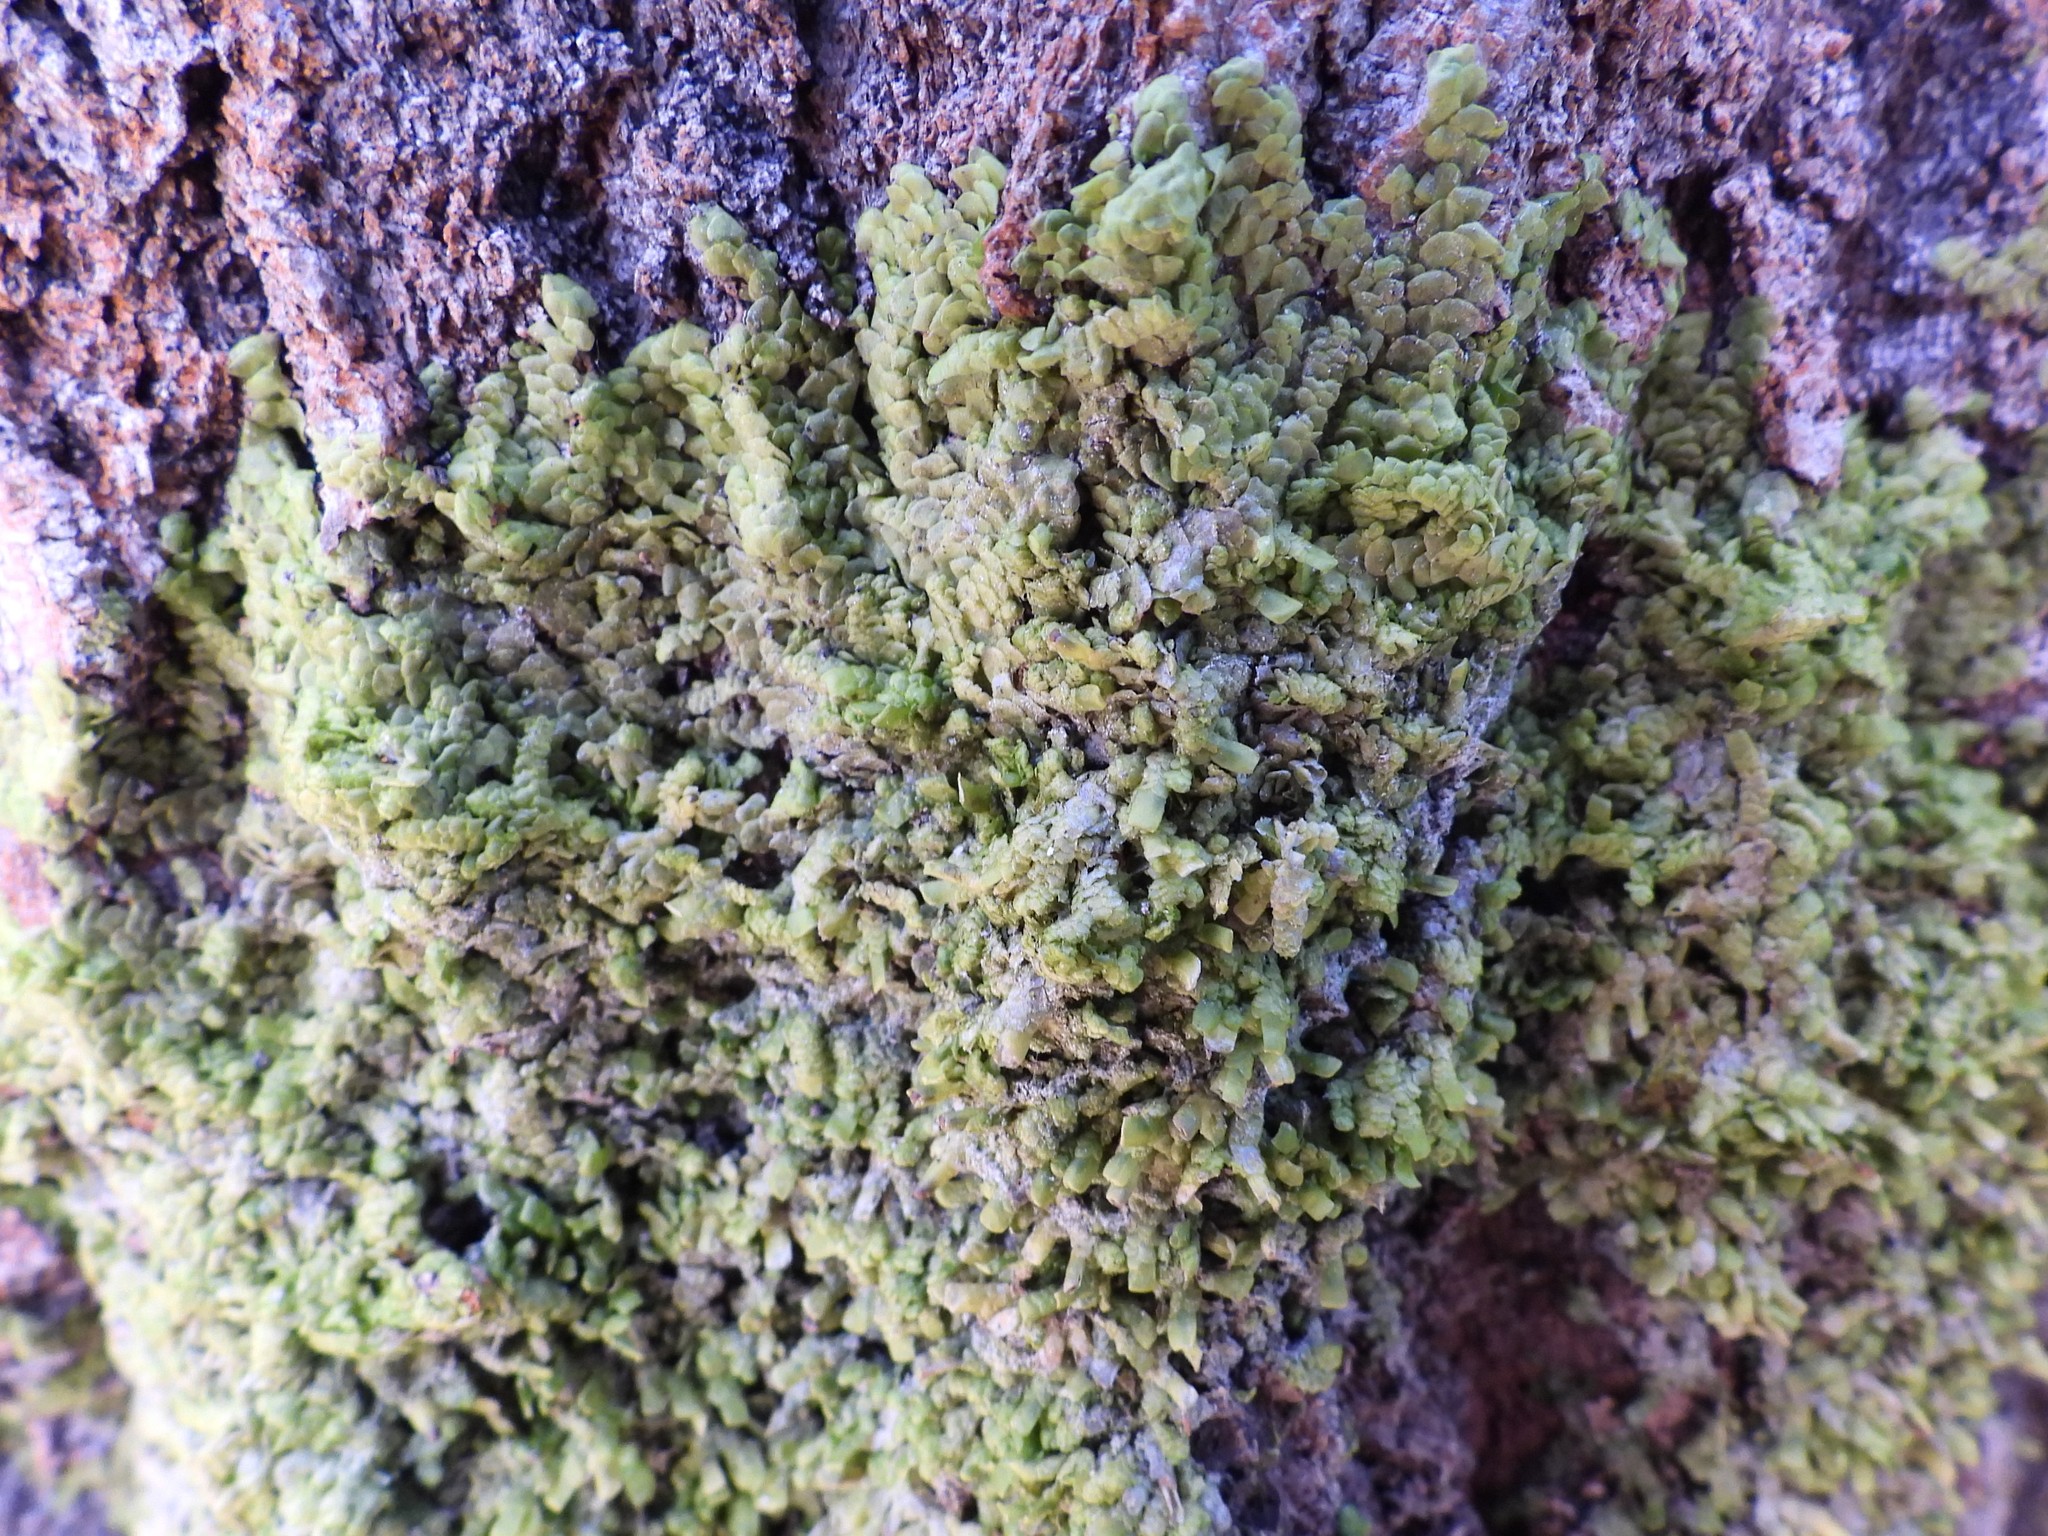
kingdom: Plantae
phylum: Marchantiophyta
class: Jungermanniopsida
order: Porellales
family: Radulaceae
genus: Radula
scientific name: Radula complanata
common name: Flat-leaved scalewort
